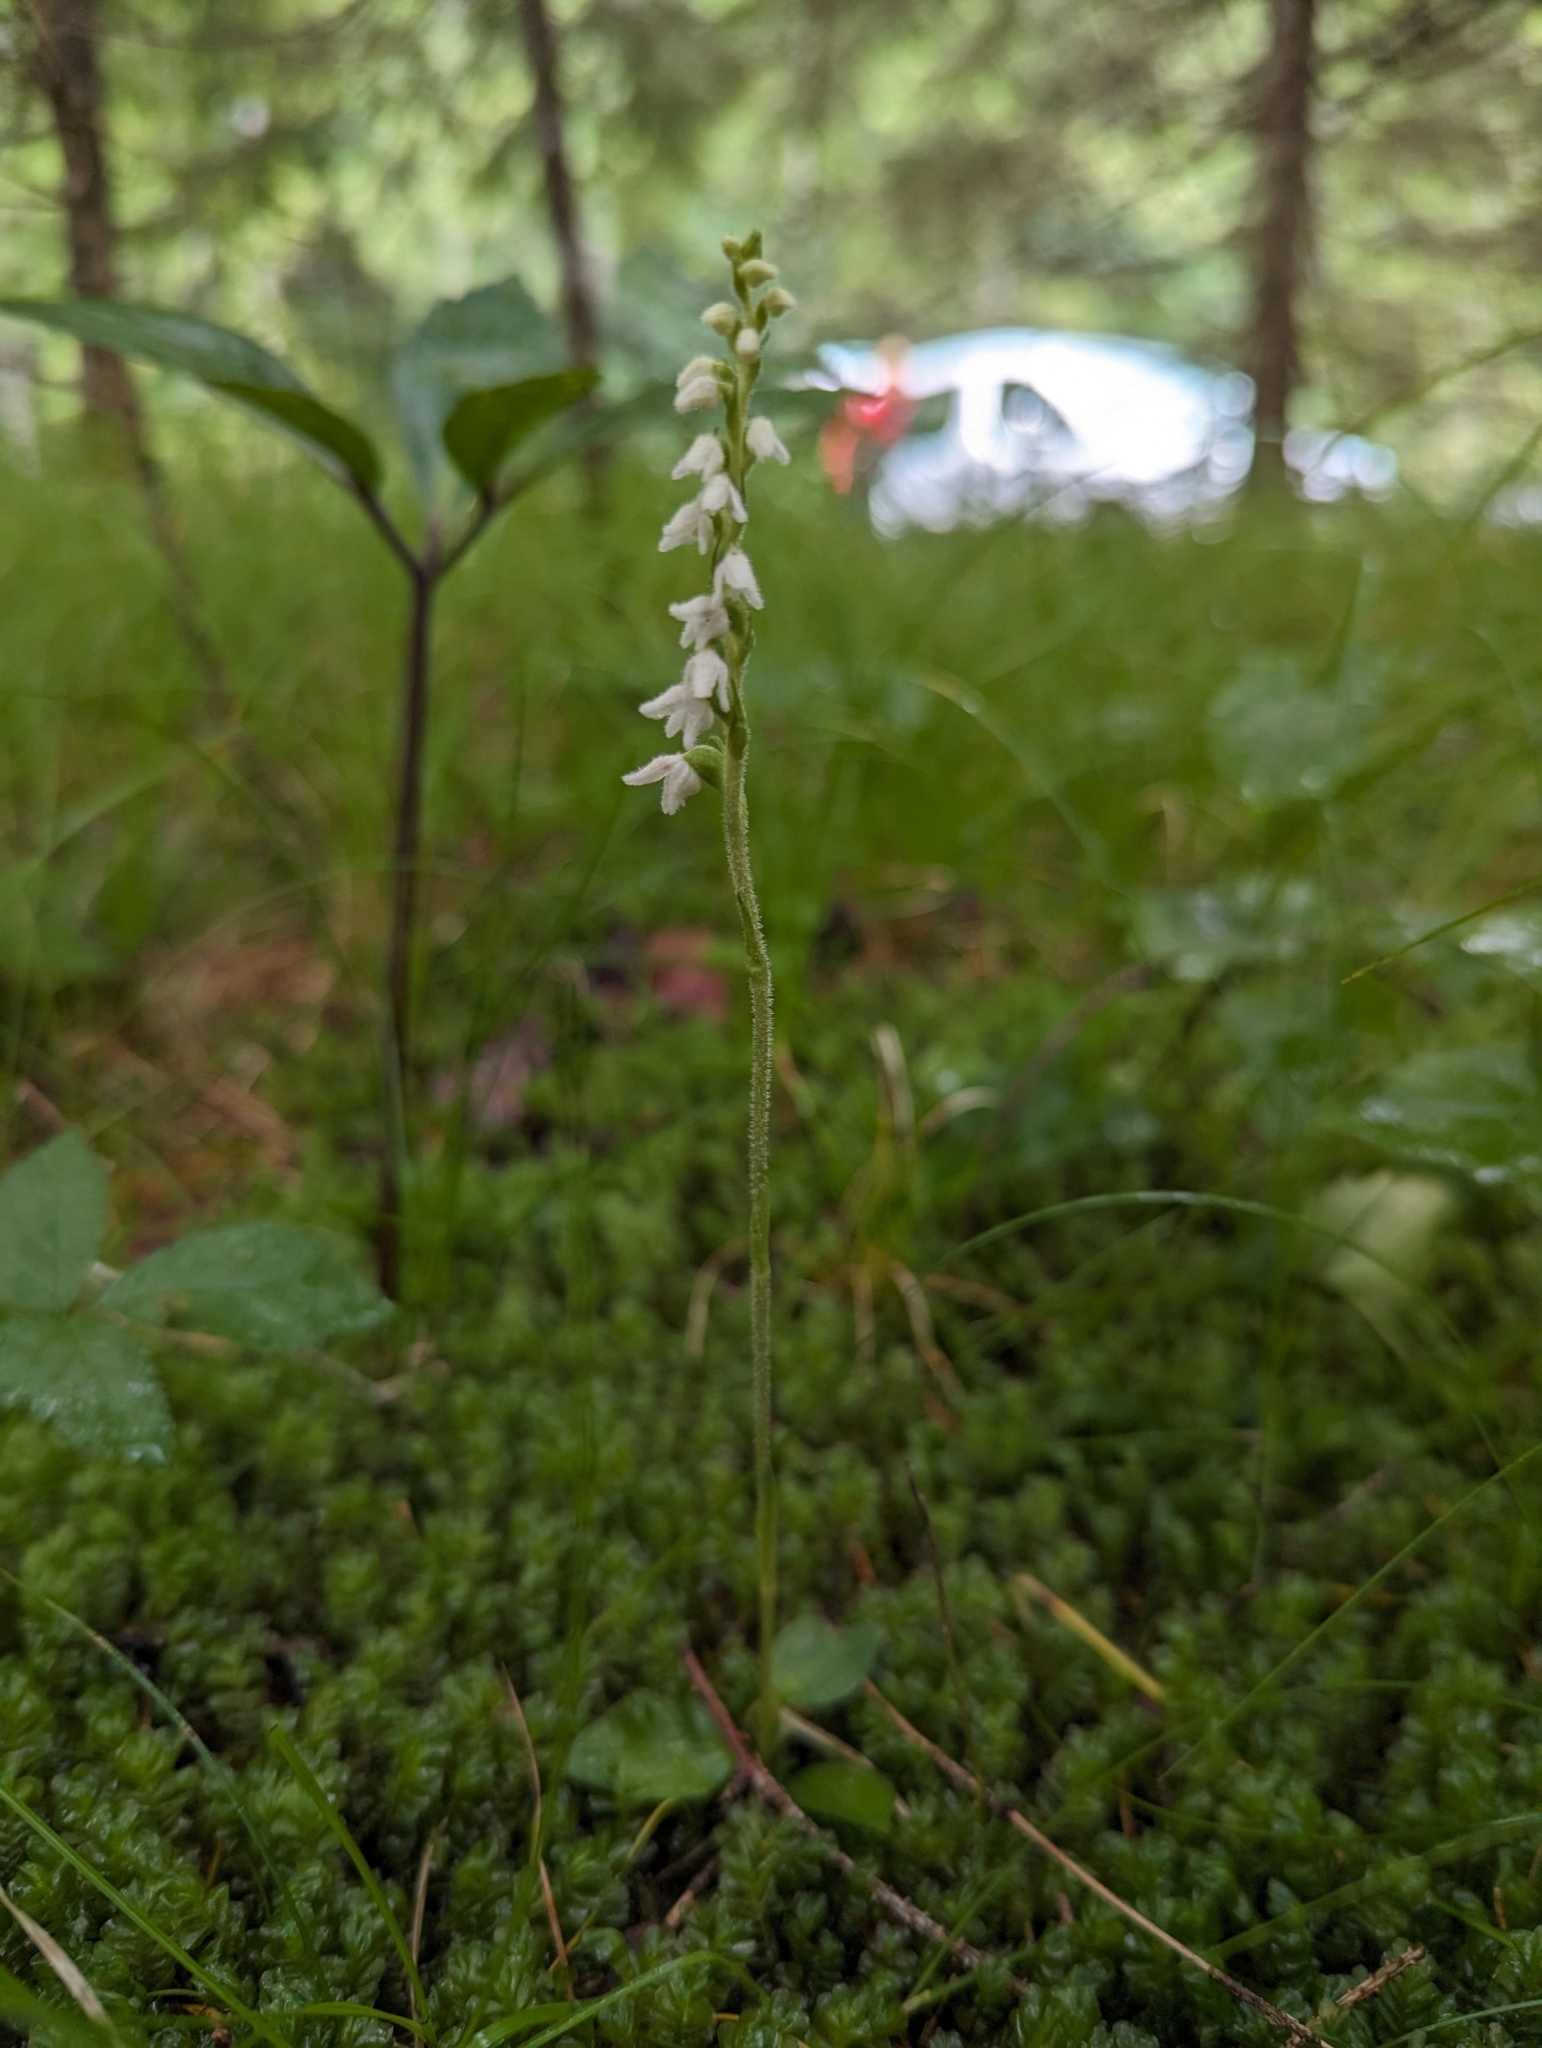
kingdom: Plantae
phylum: Tracheophyta
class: Liliopsida
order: Asparagales
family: Orchidaceae
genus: Goodyera
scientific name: Goodyera repens
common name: Creeping lady's-tresses
